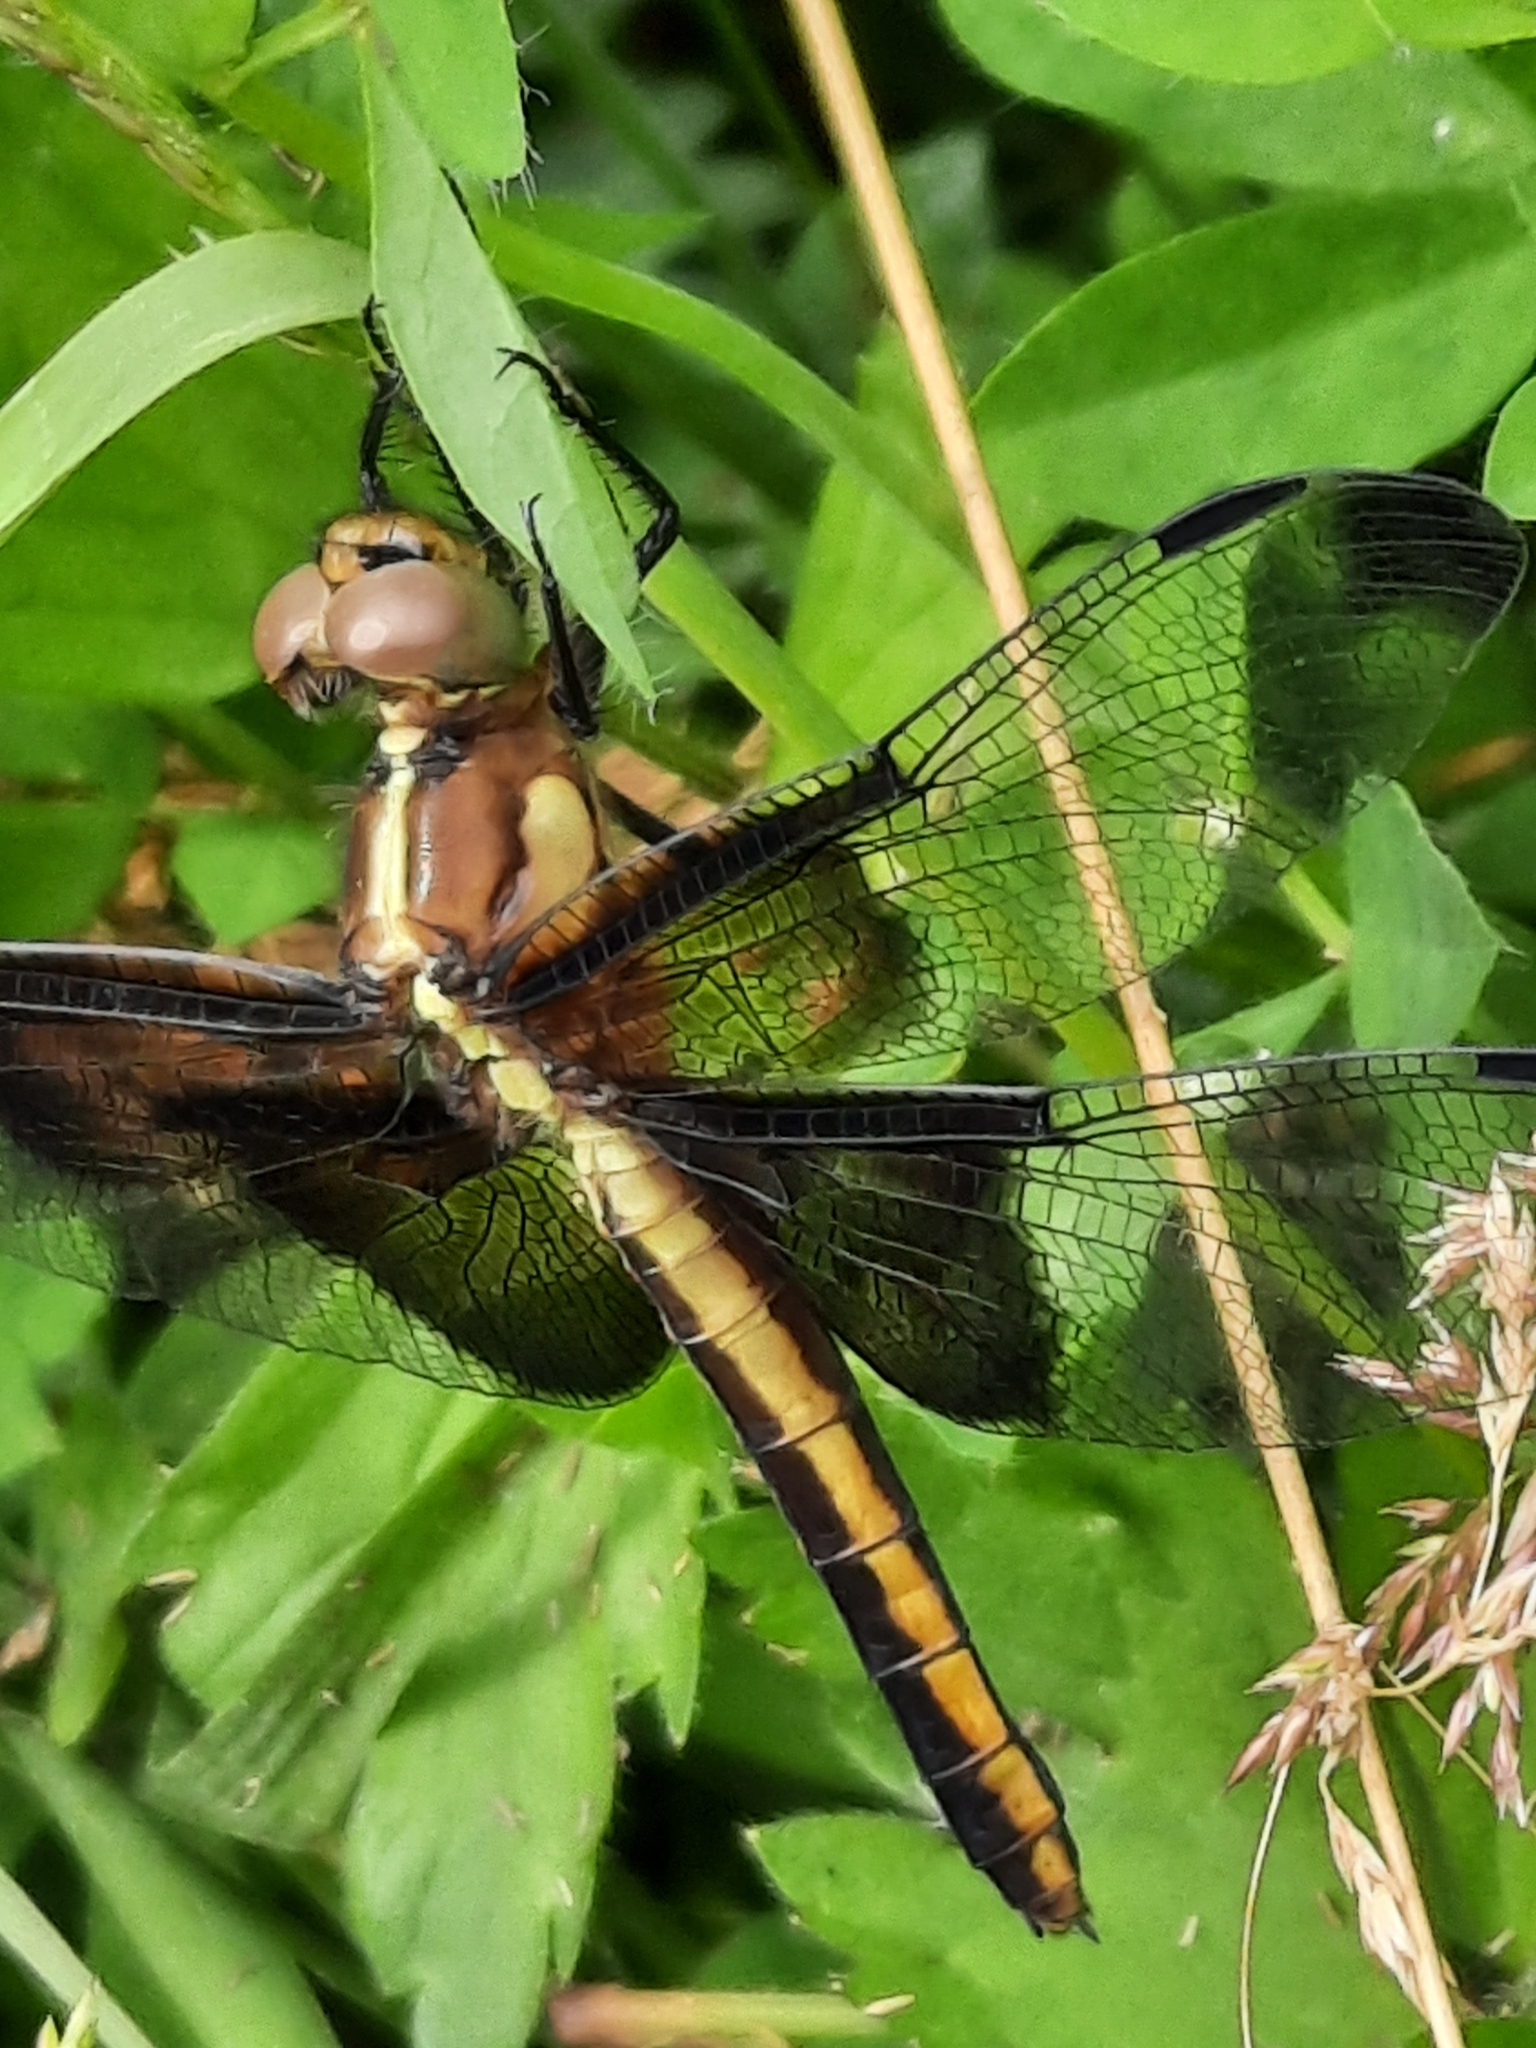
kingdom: Animalia
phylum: Arthropoda
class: Insecta
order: Odonata
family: Libellulidae
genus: Libellula
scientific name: Libellula luctuosa
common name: Widow skimmer
